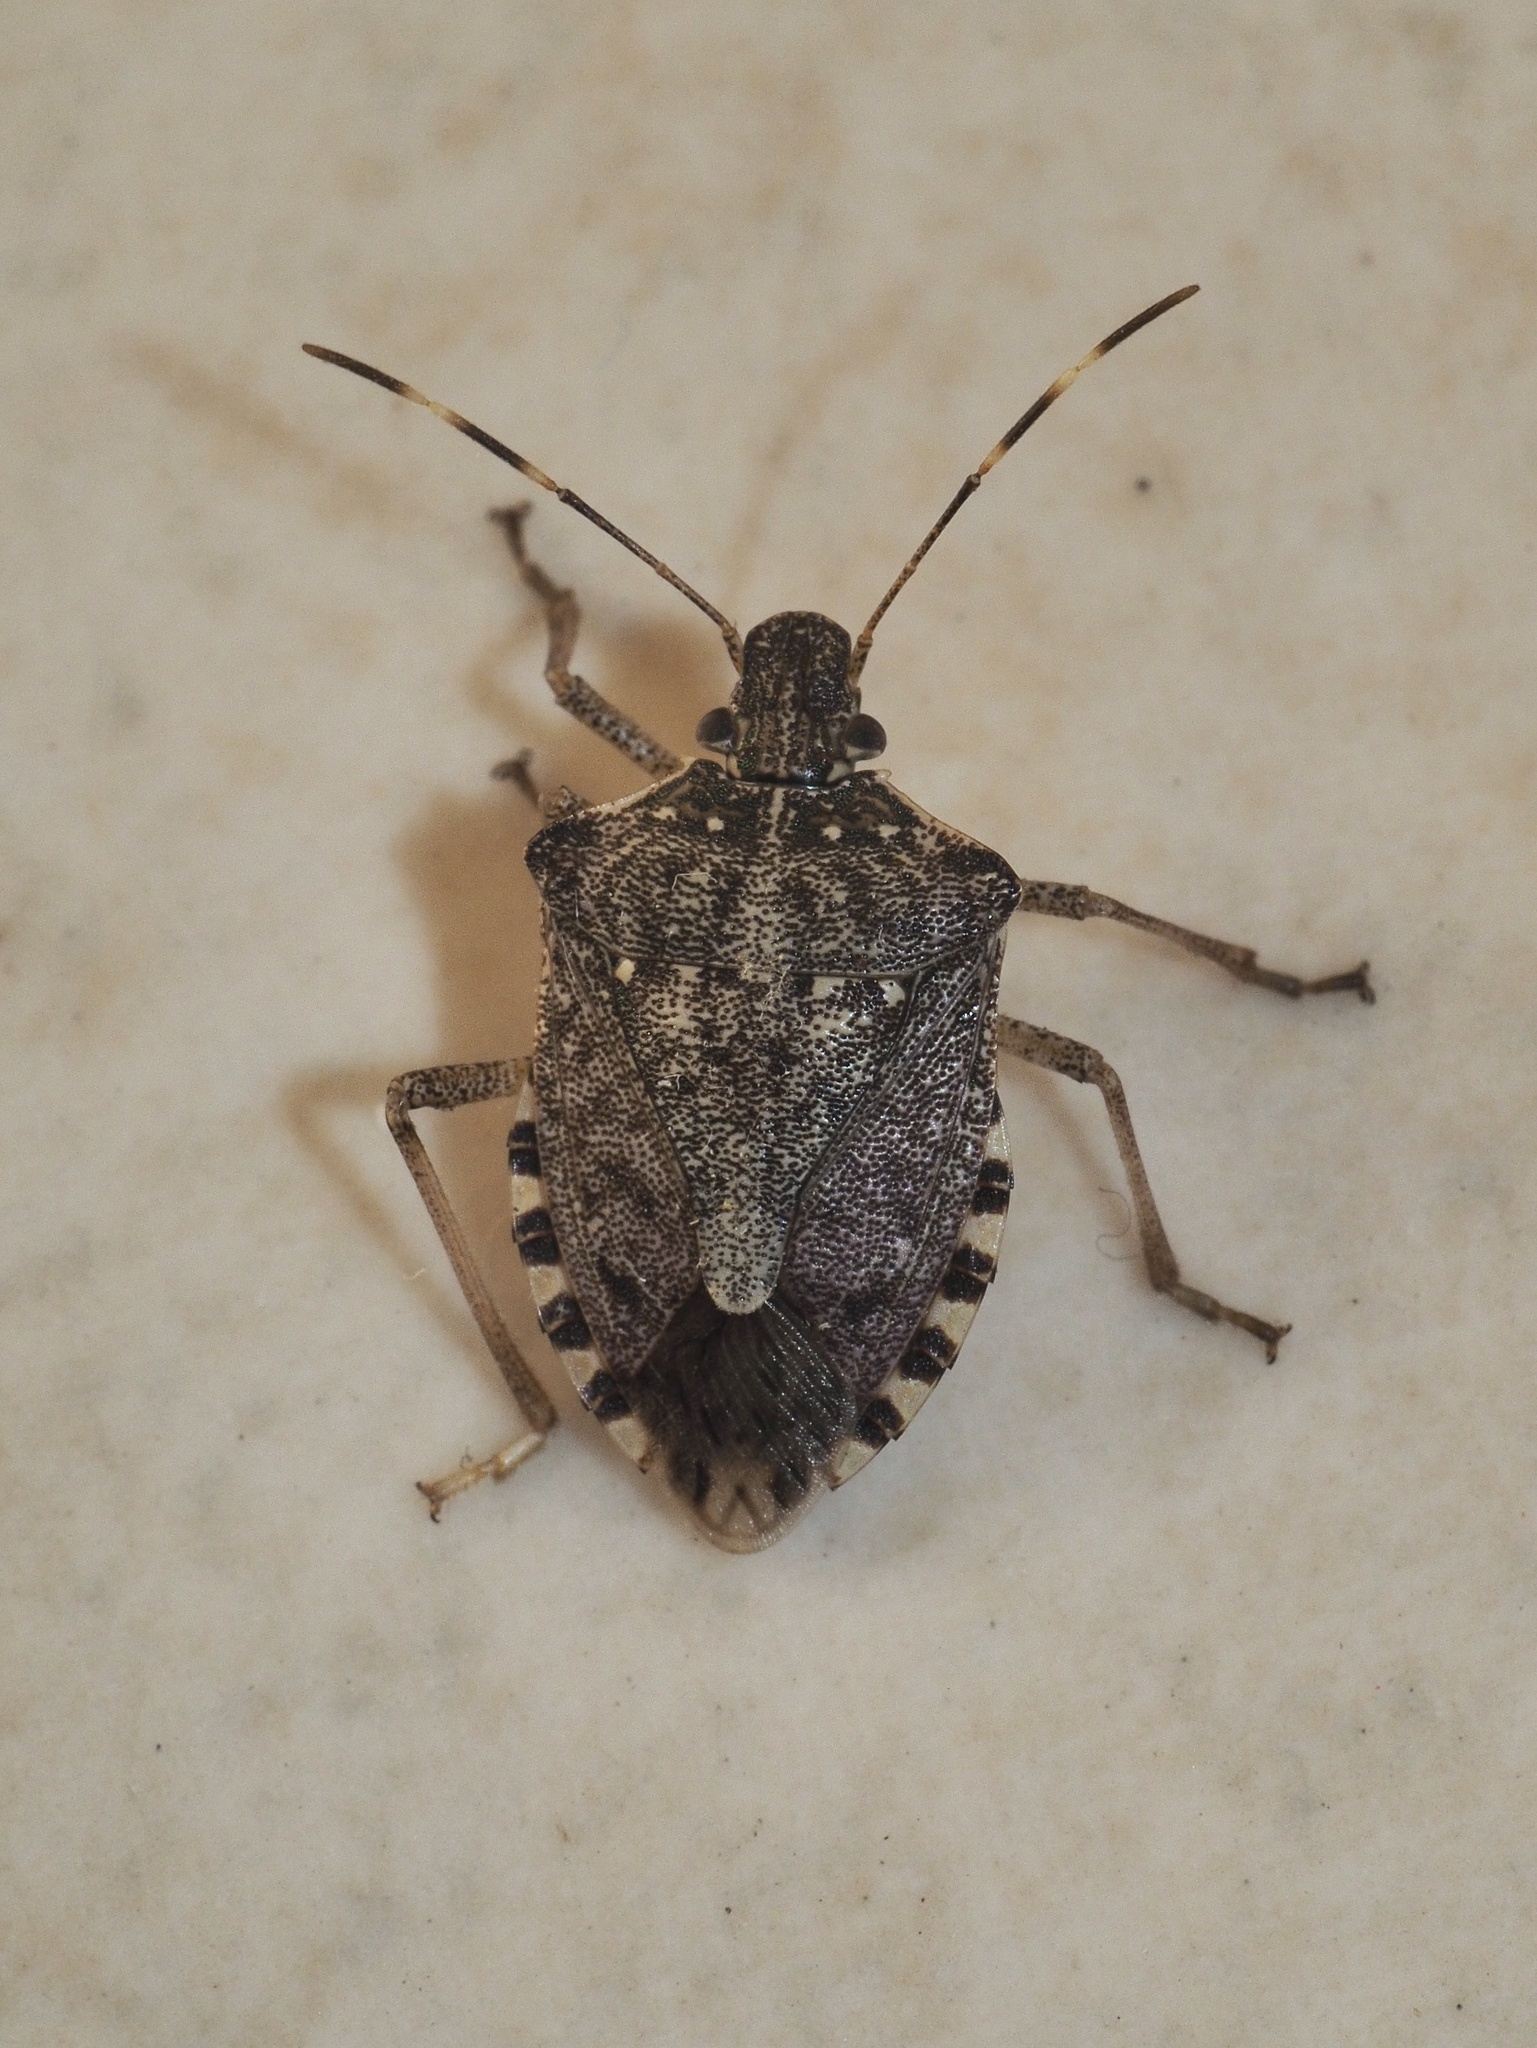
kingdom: Animalia
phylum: Arthropoda
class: Insecta
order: Hemiptera
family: Pentatomidae
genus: Halyomorpha
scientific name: Halyomorpha halys
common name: Brown marmorated stink bug
